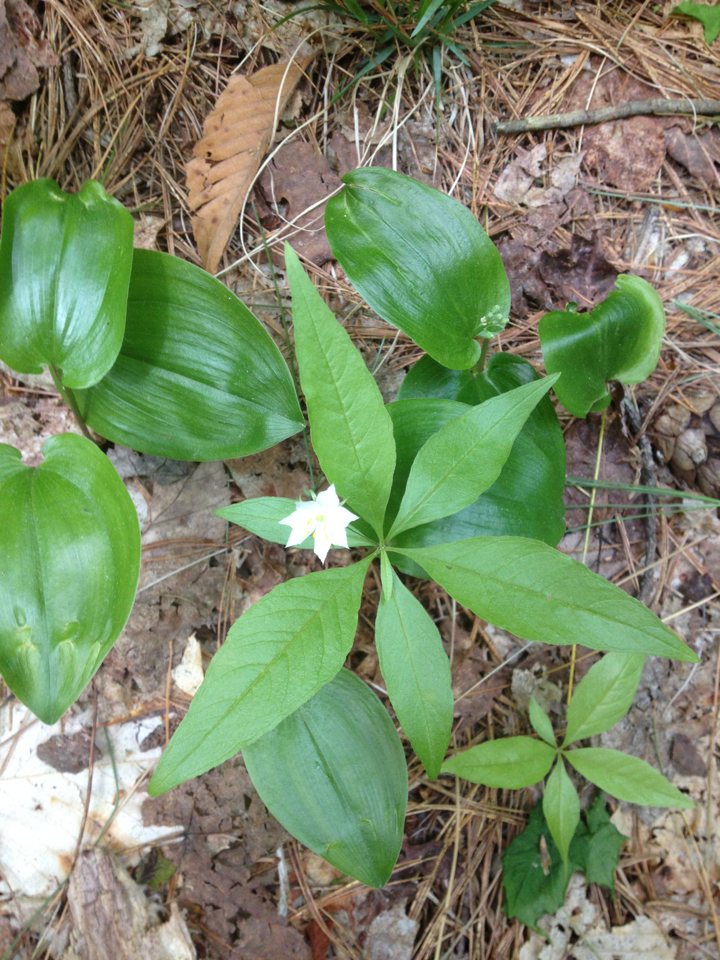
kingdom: Plantae
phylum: Tracheophyta
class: Magnoliopsida
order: Ericales
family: Primulaceae
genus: Lysimachia
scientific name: Lysimachia borealis
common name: American starflower
